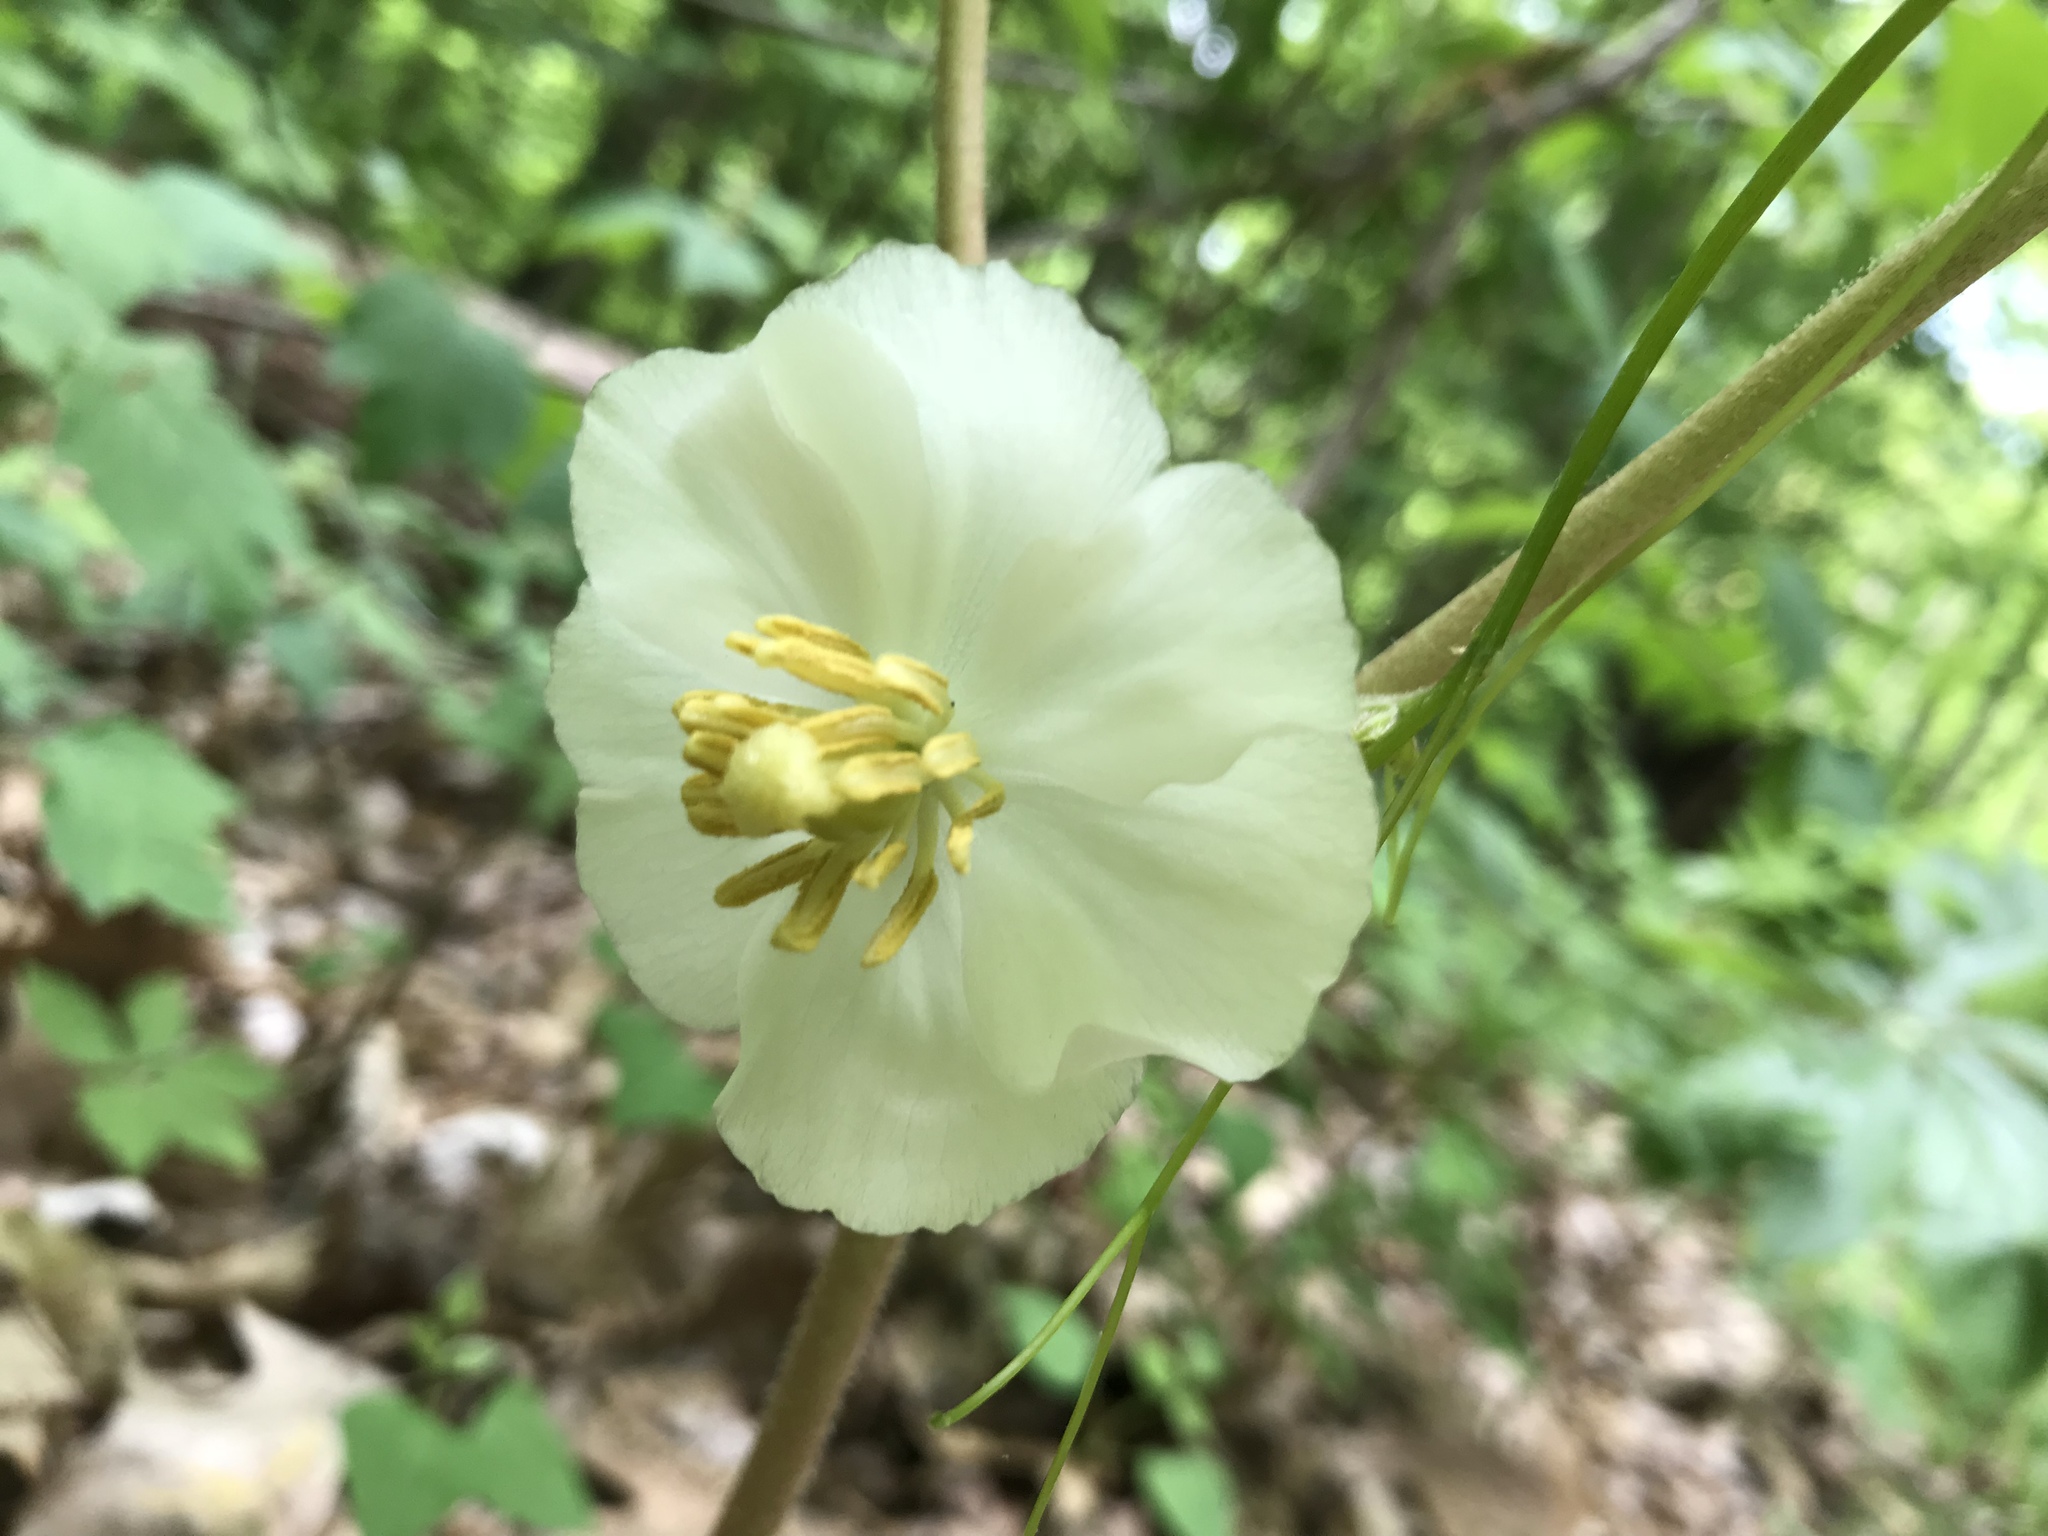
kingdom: Plantae
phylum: Tracheophyta
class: Magnoliopsida
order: Ranunculales
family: Berberidaceae
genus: Podophyllum
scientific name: Podophyllum peltatum
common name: Wild mandrake
